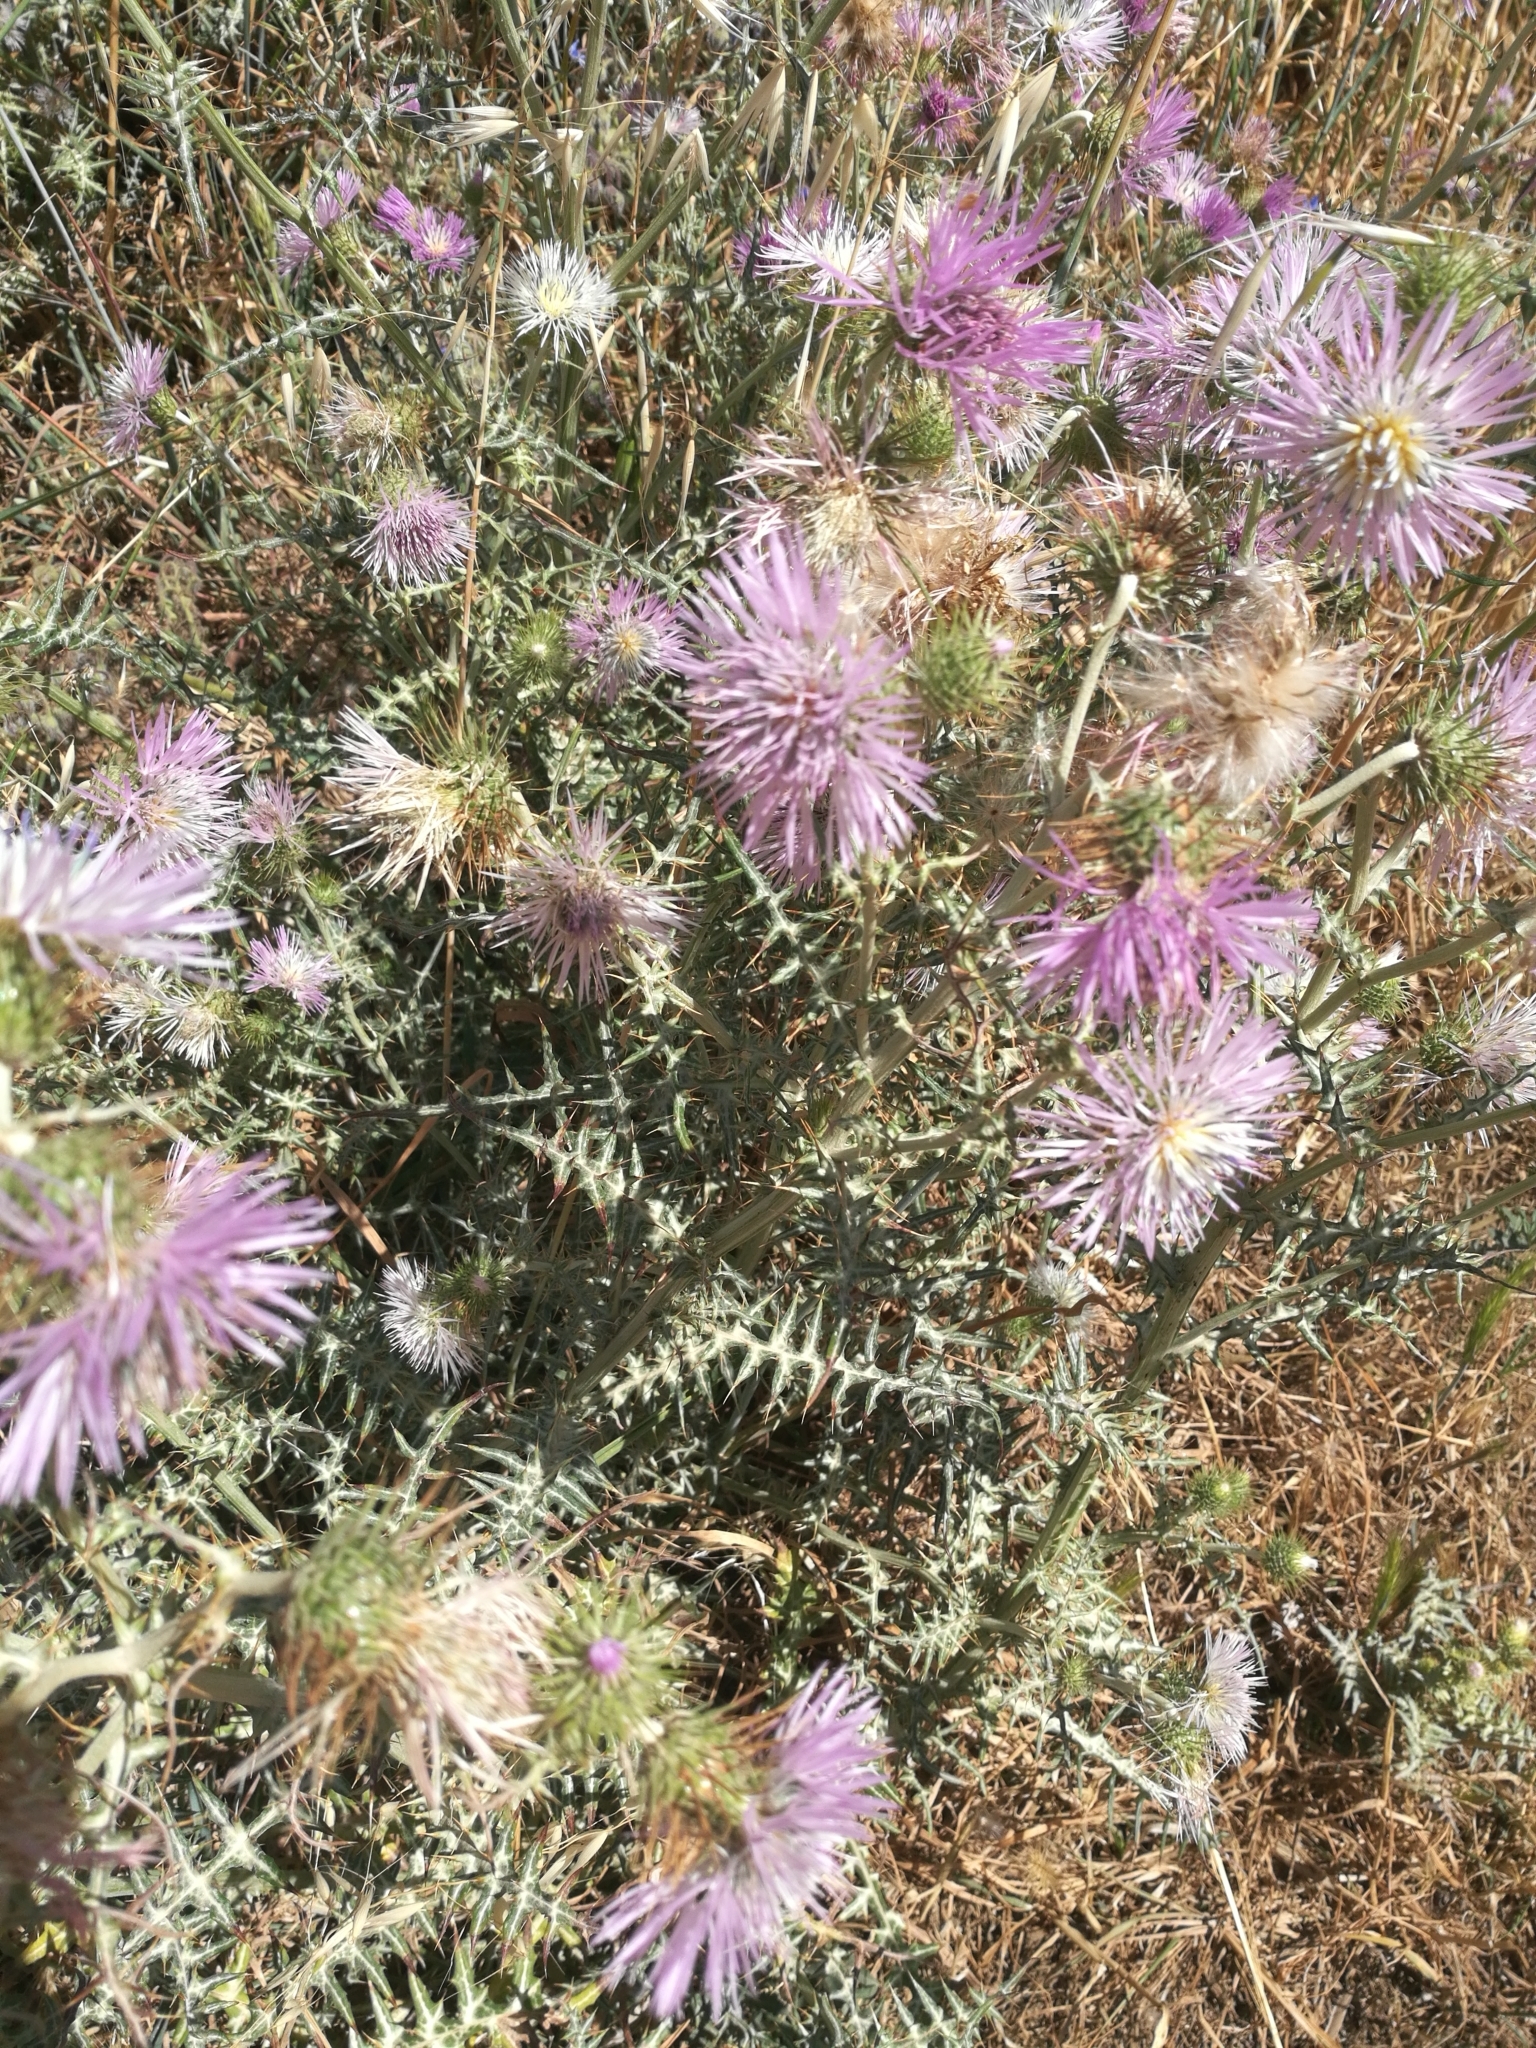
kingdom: Plantae
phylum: Tracheophyta
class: Magnoliopsida
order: Asterales
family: Asteraceae
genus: Galactites
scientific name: Galactites tomentosa
